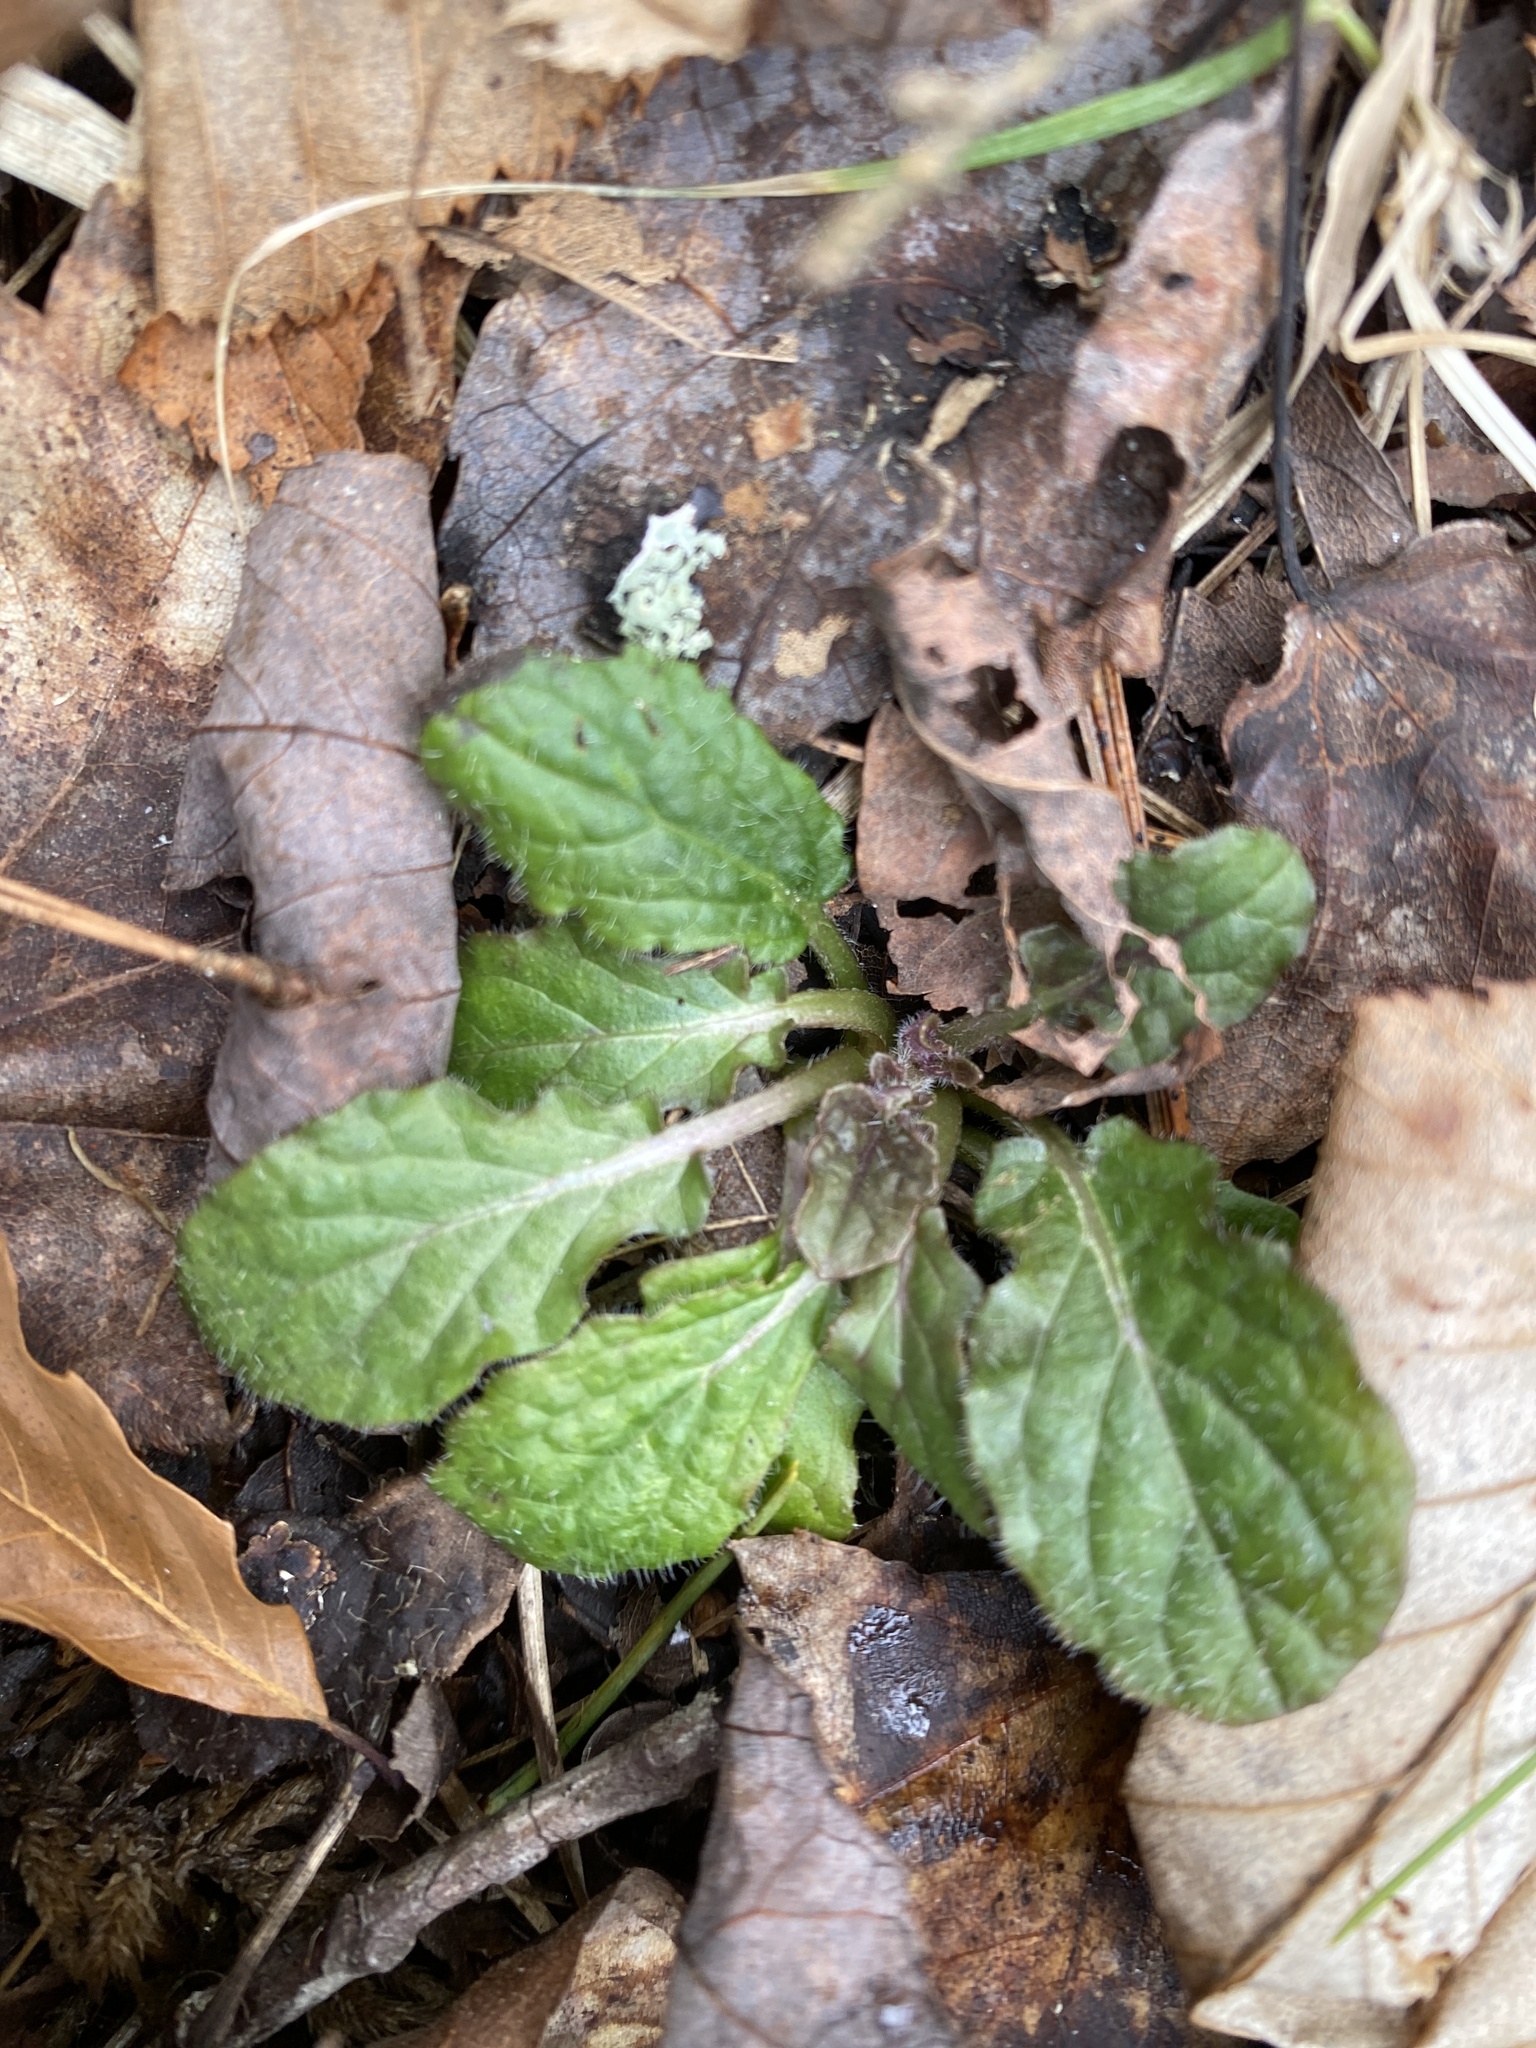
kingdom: Plantae
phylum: Tracheophyta
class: Magnoliopsida
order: Lamiales
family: Lamiaceae
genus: Salvia
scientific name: Salvia lyrata
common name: Cancerweed
